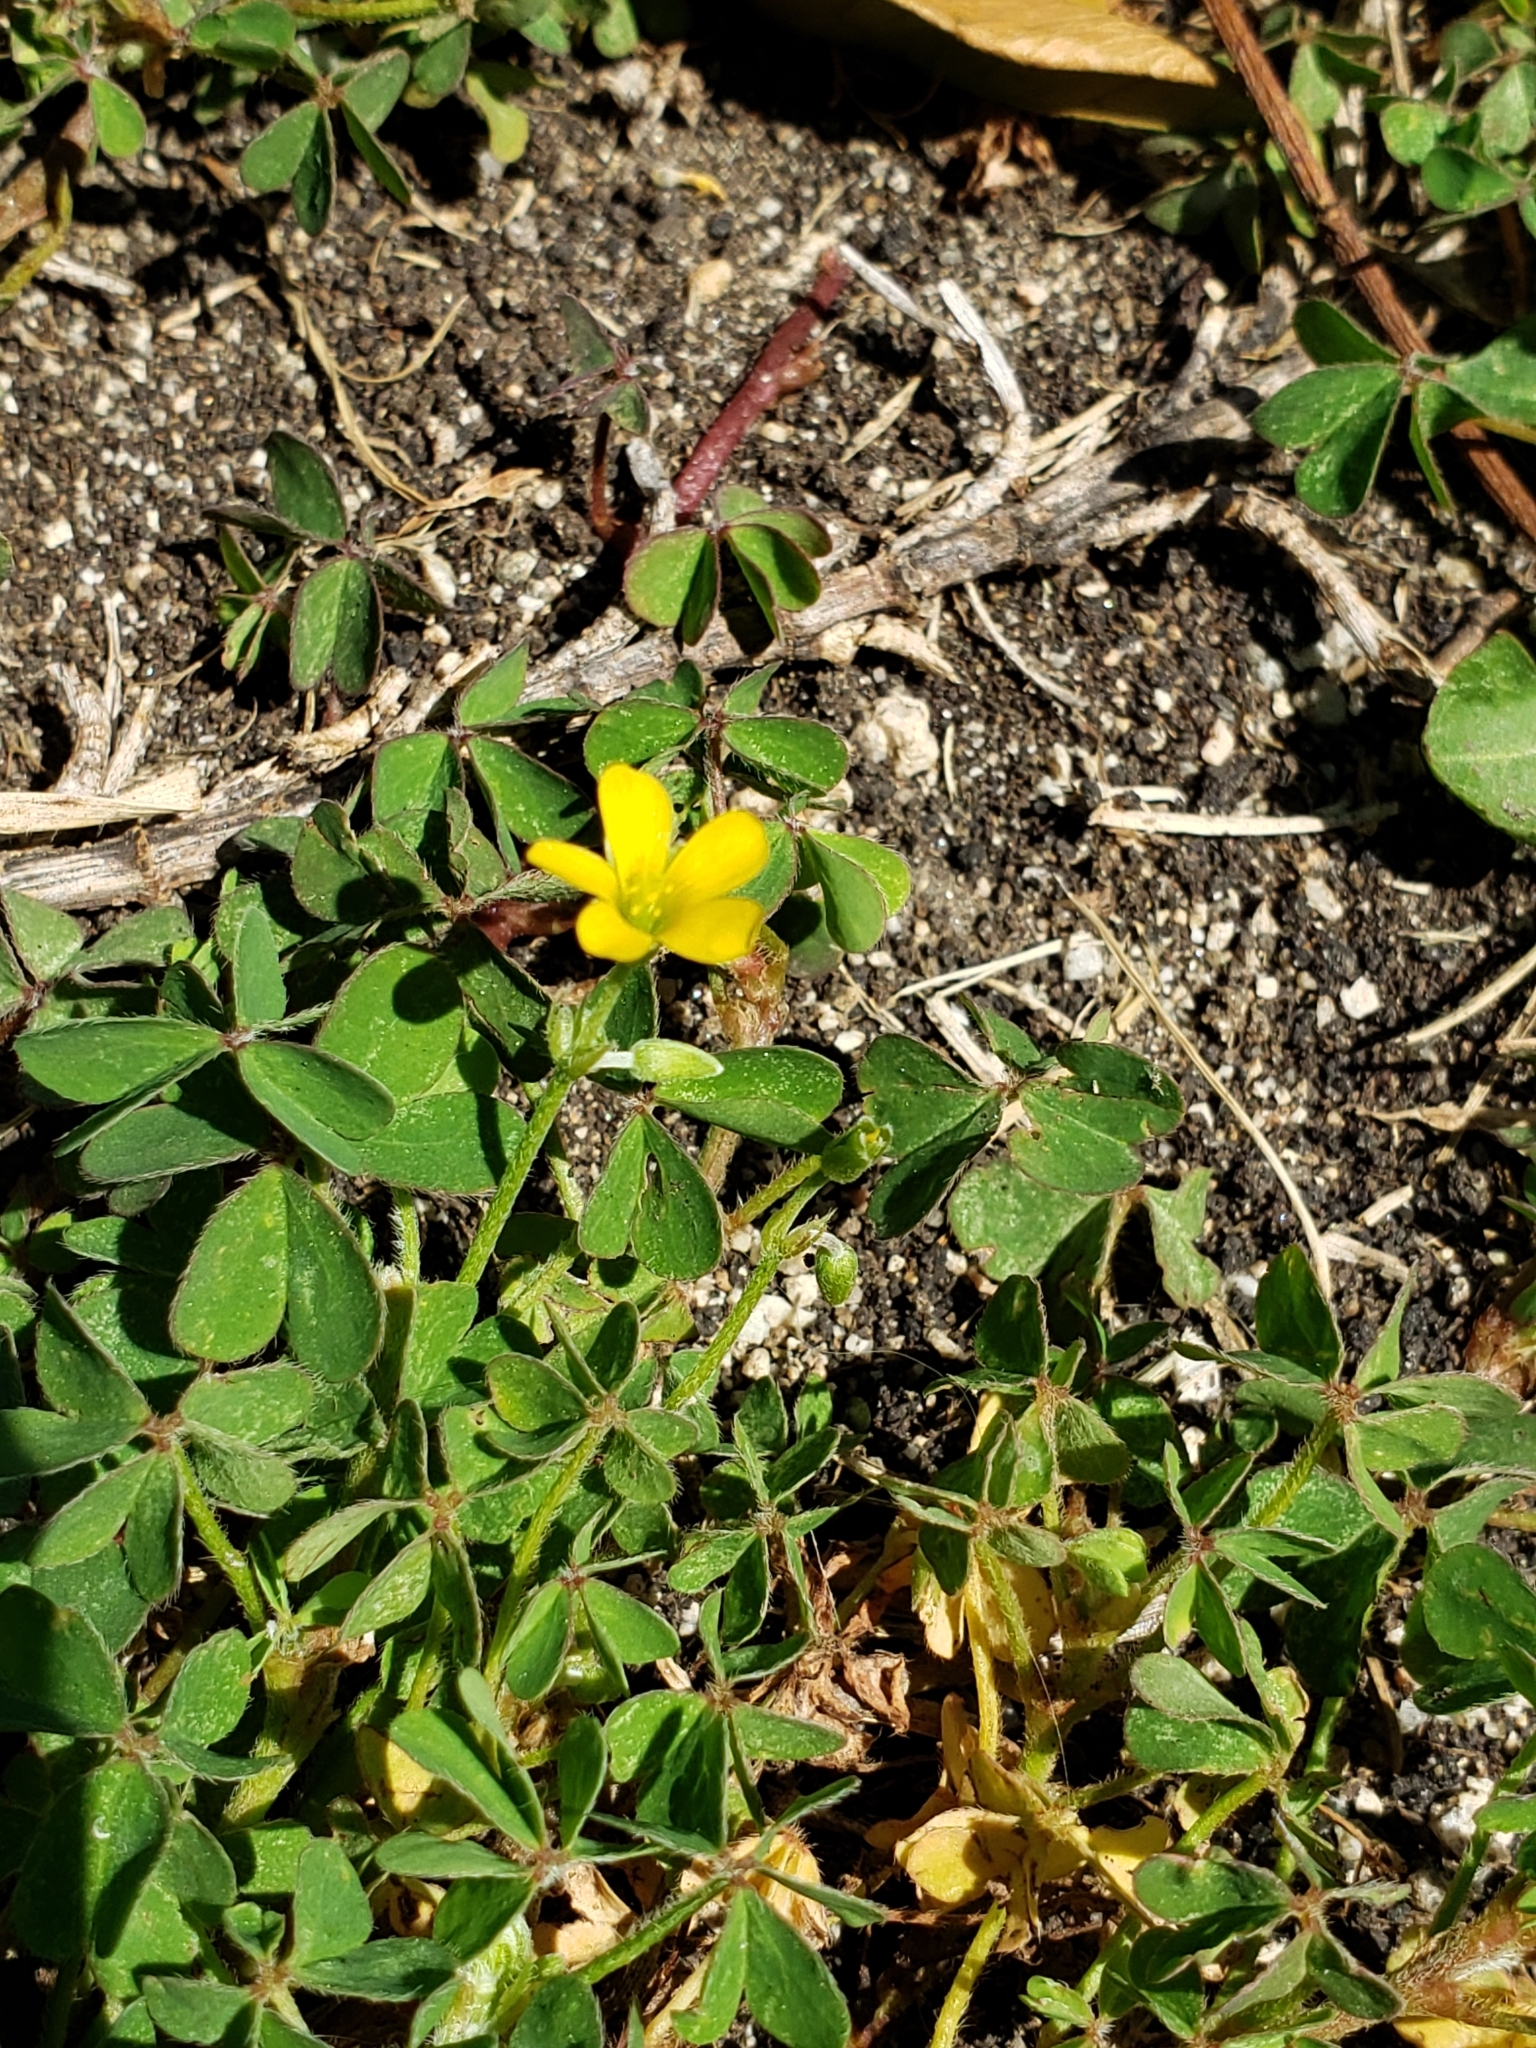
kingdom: Plantae
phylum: Tracheophyta
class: Magnoliopsida
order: Oxalidales
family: Oxalidaceae
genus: Oxalis
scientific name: Oxalis corniculata
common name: Procumbent yellow-sorrel
